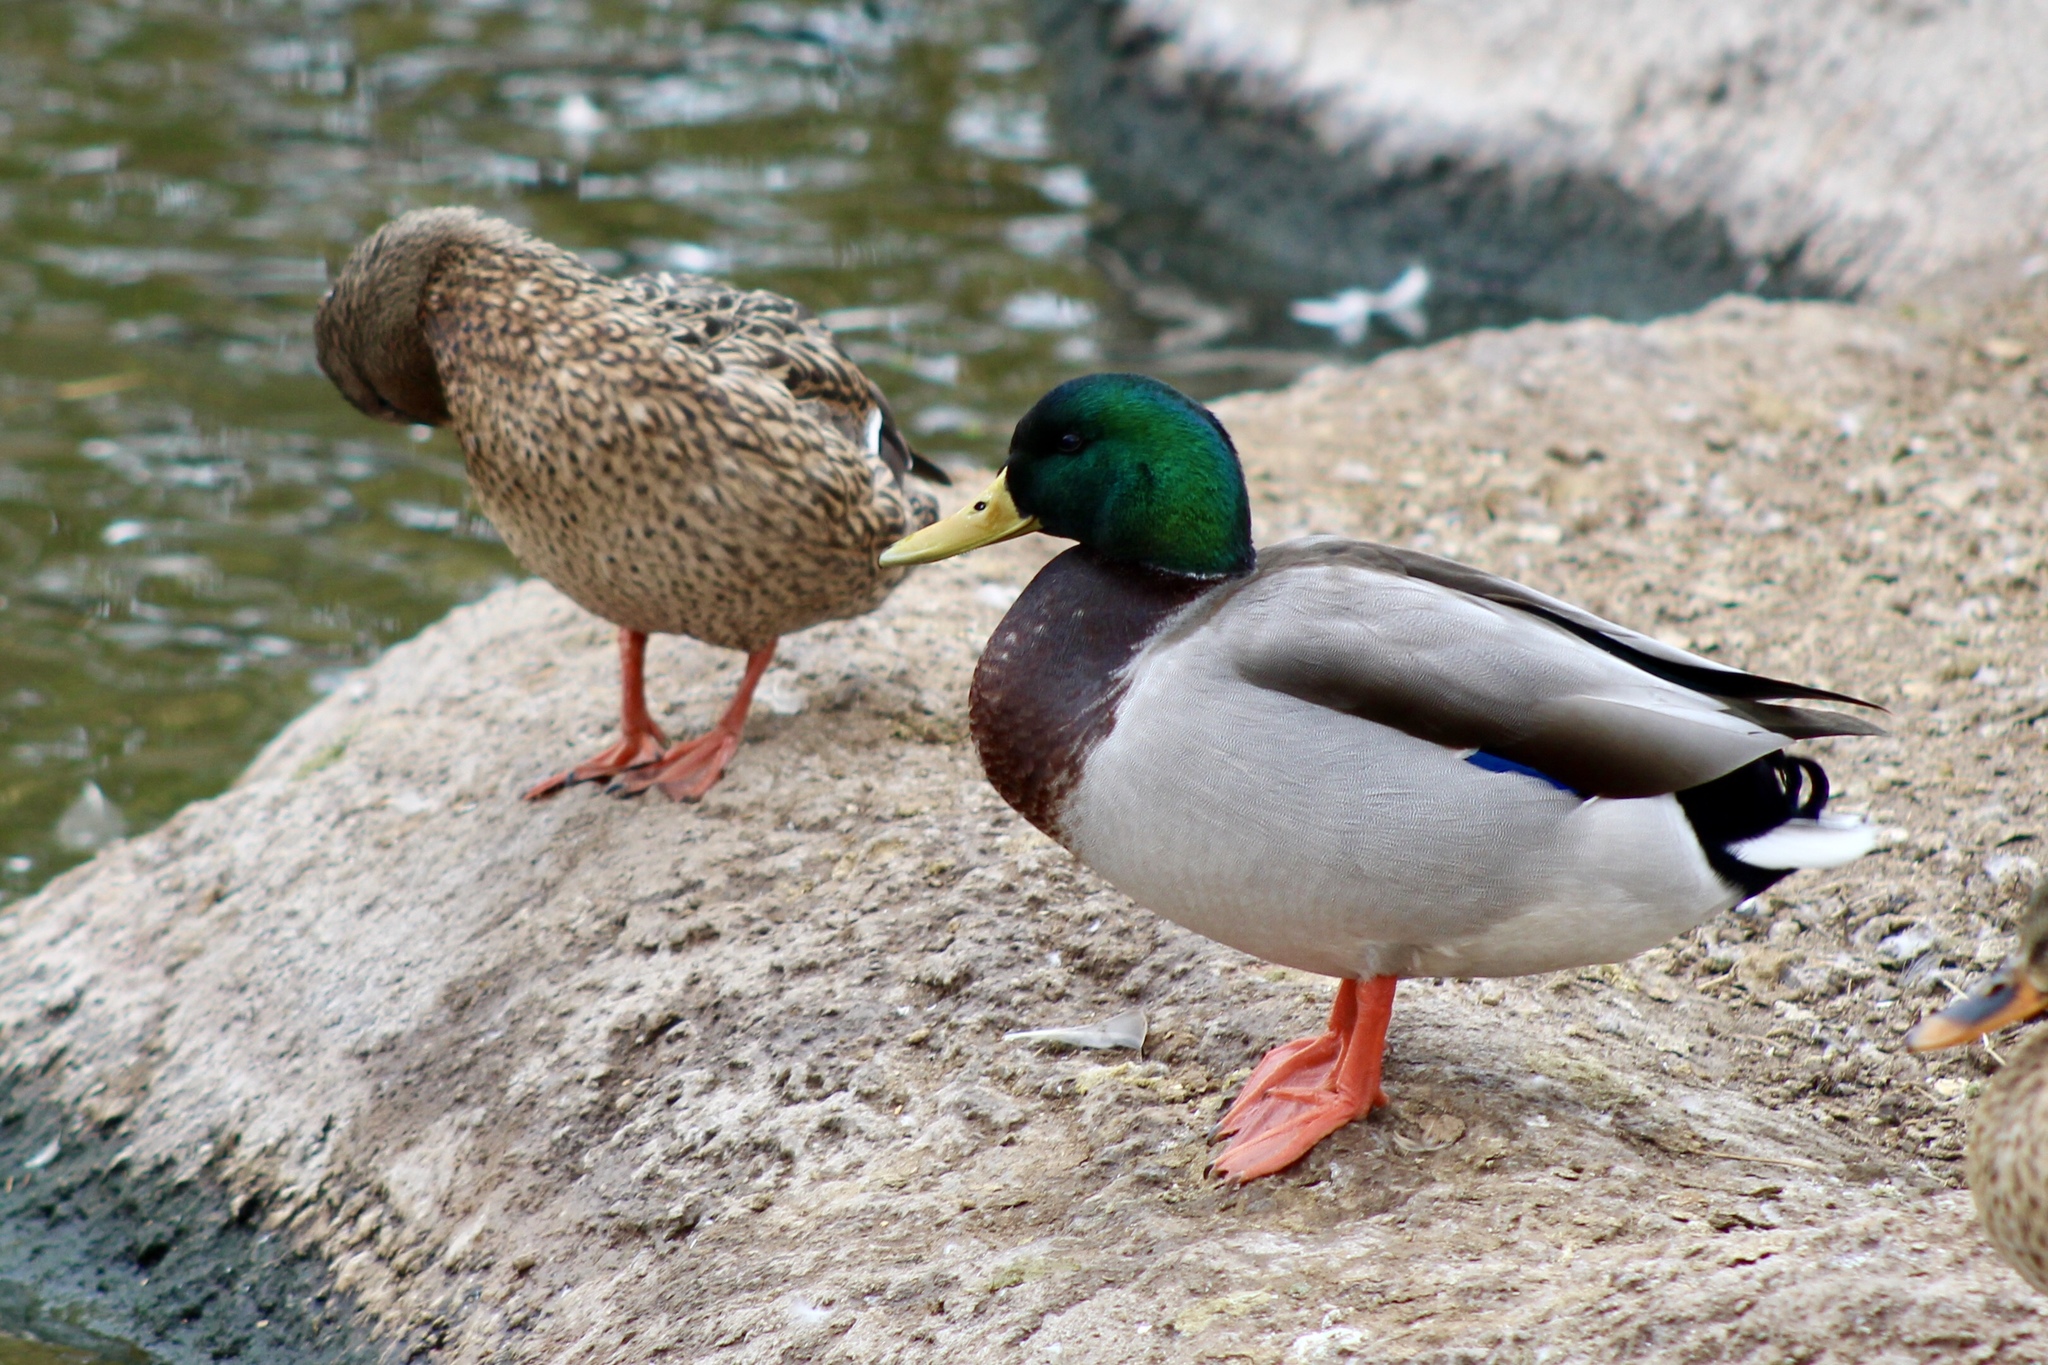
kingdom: Animalia
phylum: Chordata
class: Aves
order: Anseriformes
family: Anatidae
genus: Anas
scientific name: Anas platyrhynchos
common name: Mallard
